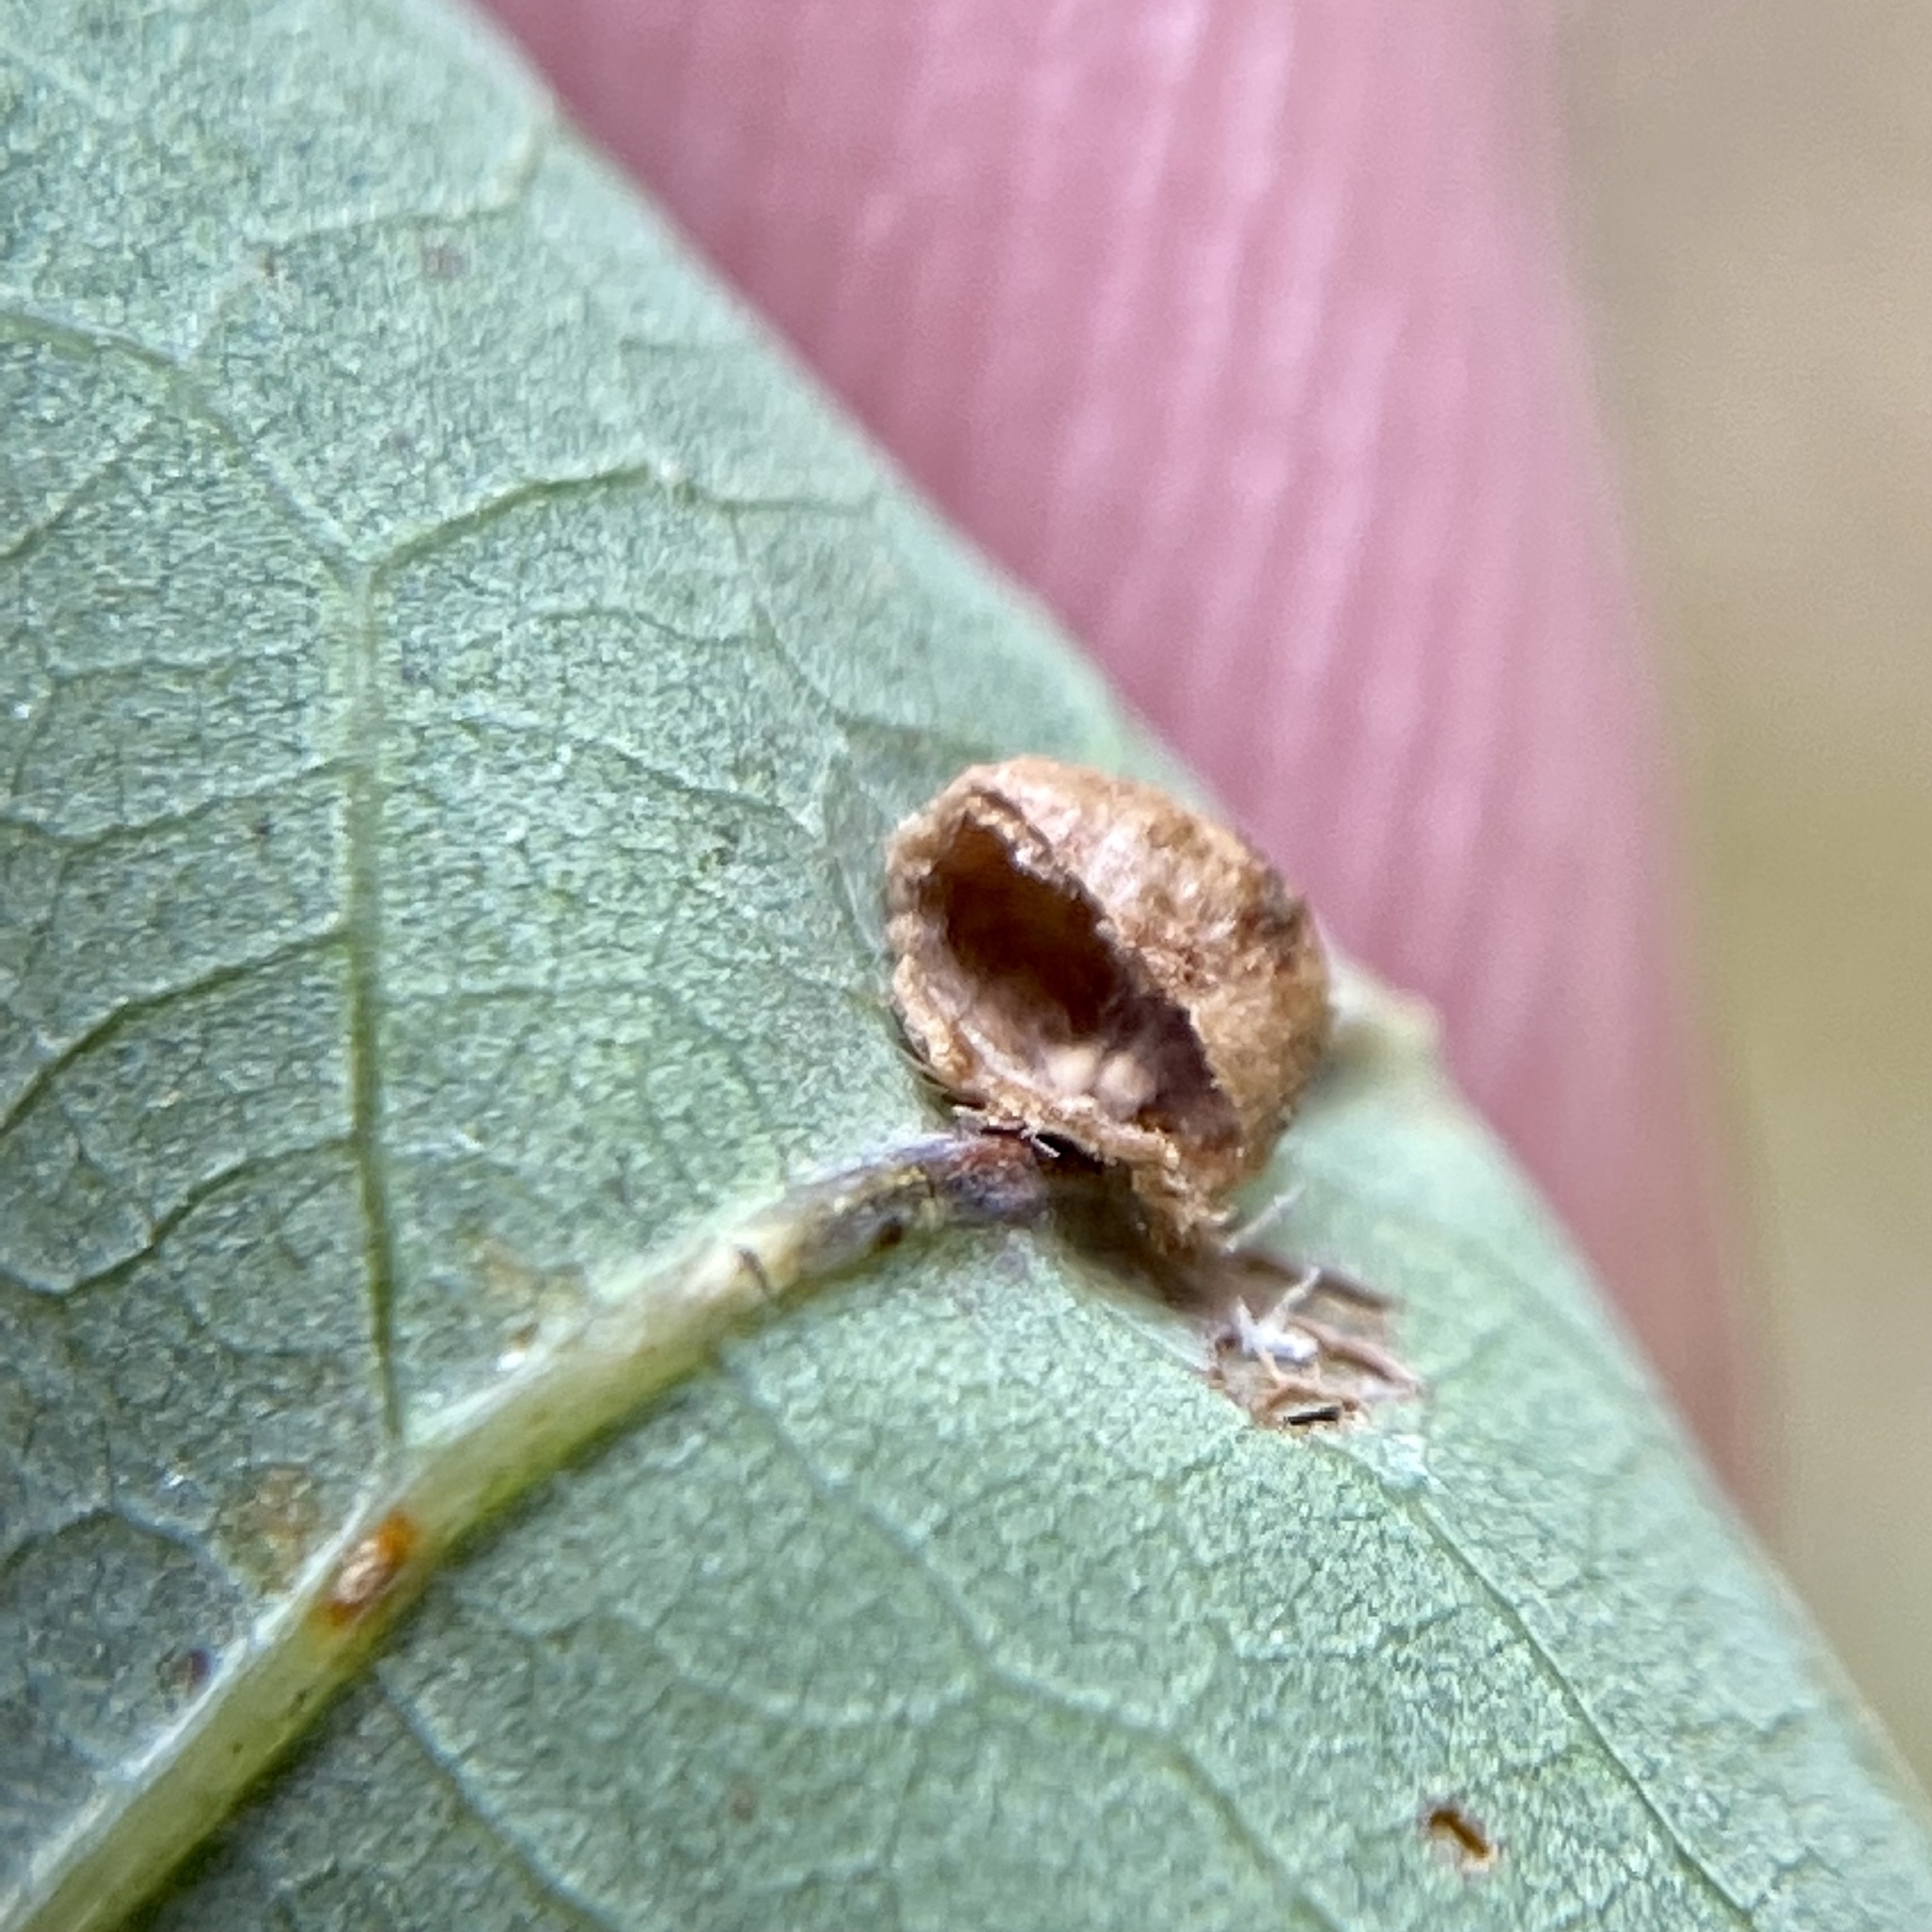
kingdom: Animalia
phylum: Arthropoda
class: Insecta
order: Hymenoptera
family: Cynipidae
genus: Philonix
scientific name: Philonix fulvicollis
